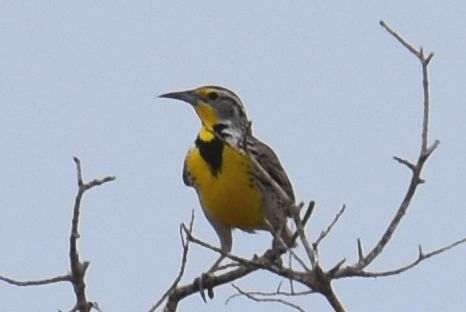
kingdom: Animalia
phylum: Chordata
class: Aves
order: Passeriformes
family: Icteridae
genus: Sturnella
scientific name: Sturnella neglecta
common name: Western meadowlark
